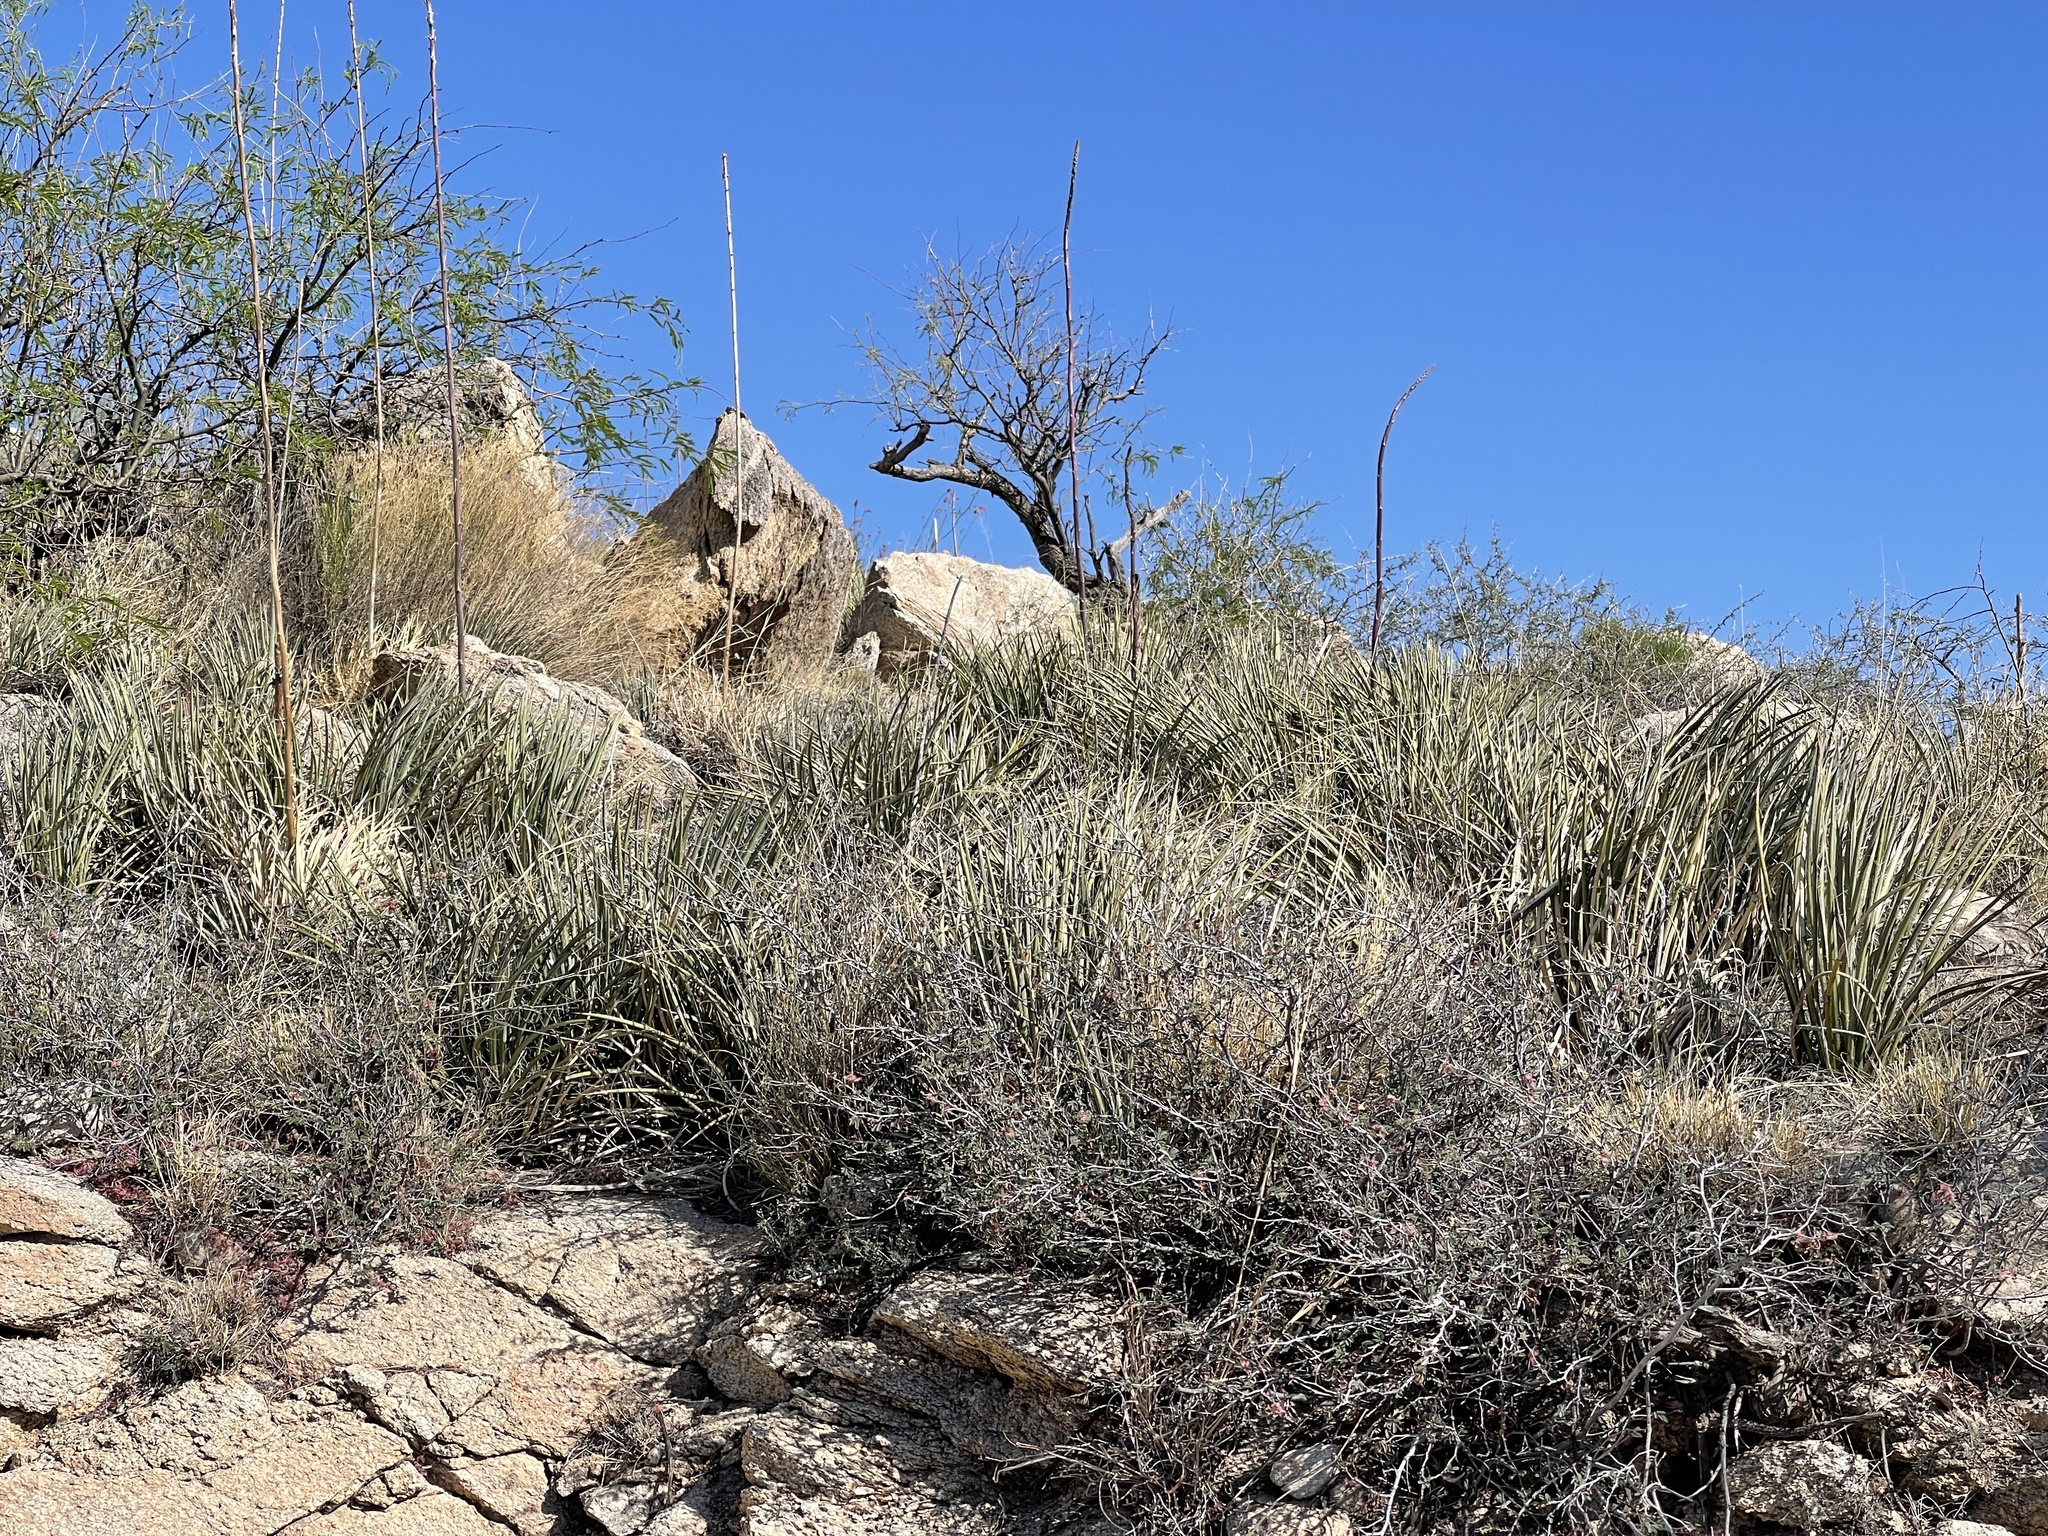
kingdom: Plantae
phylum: Tracheophyta
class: Liliopsida
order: Asparagales
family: Asparagaceae
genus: Agave
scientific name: Agave schottii
